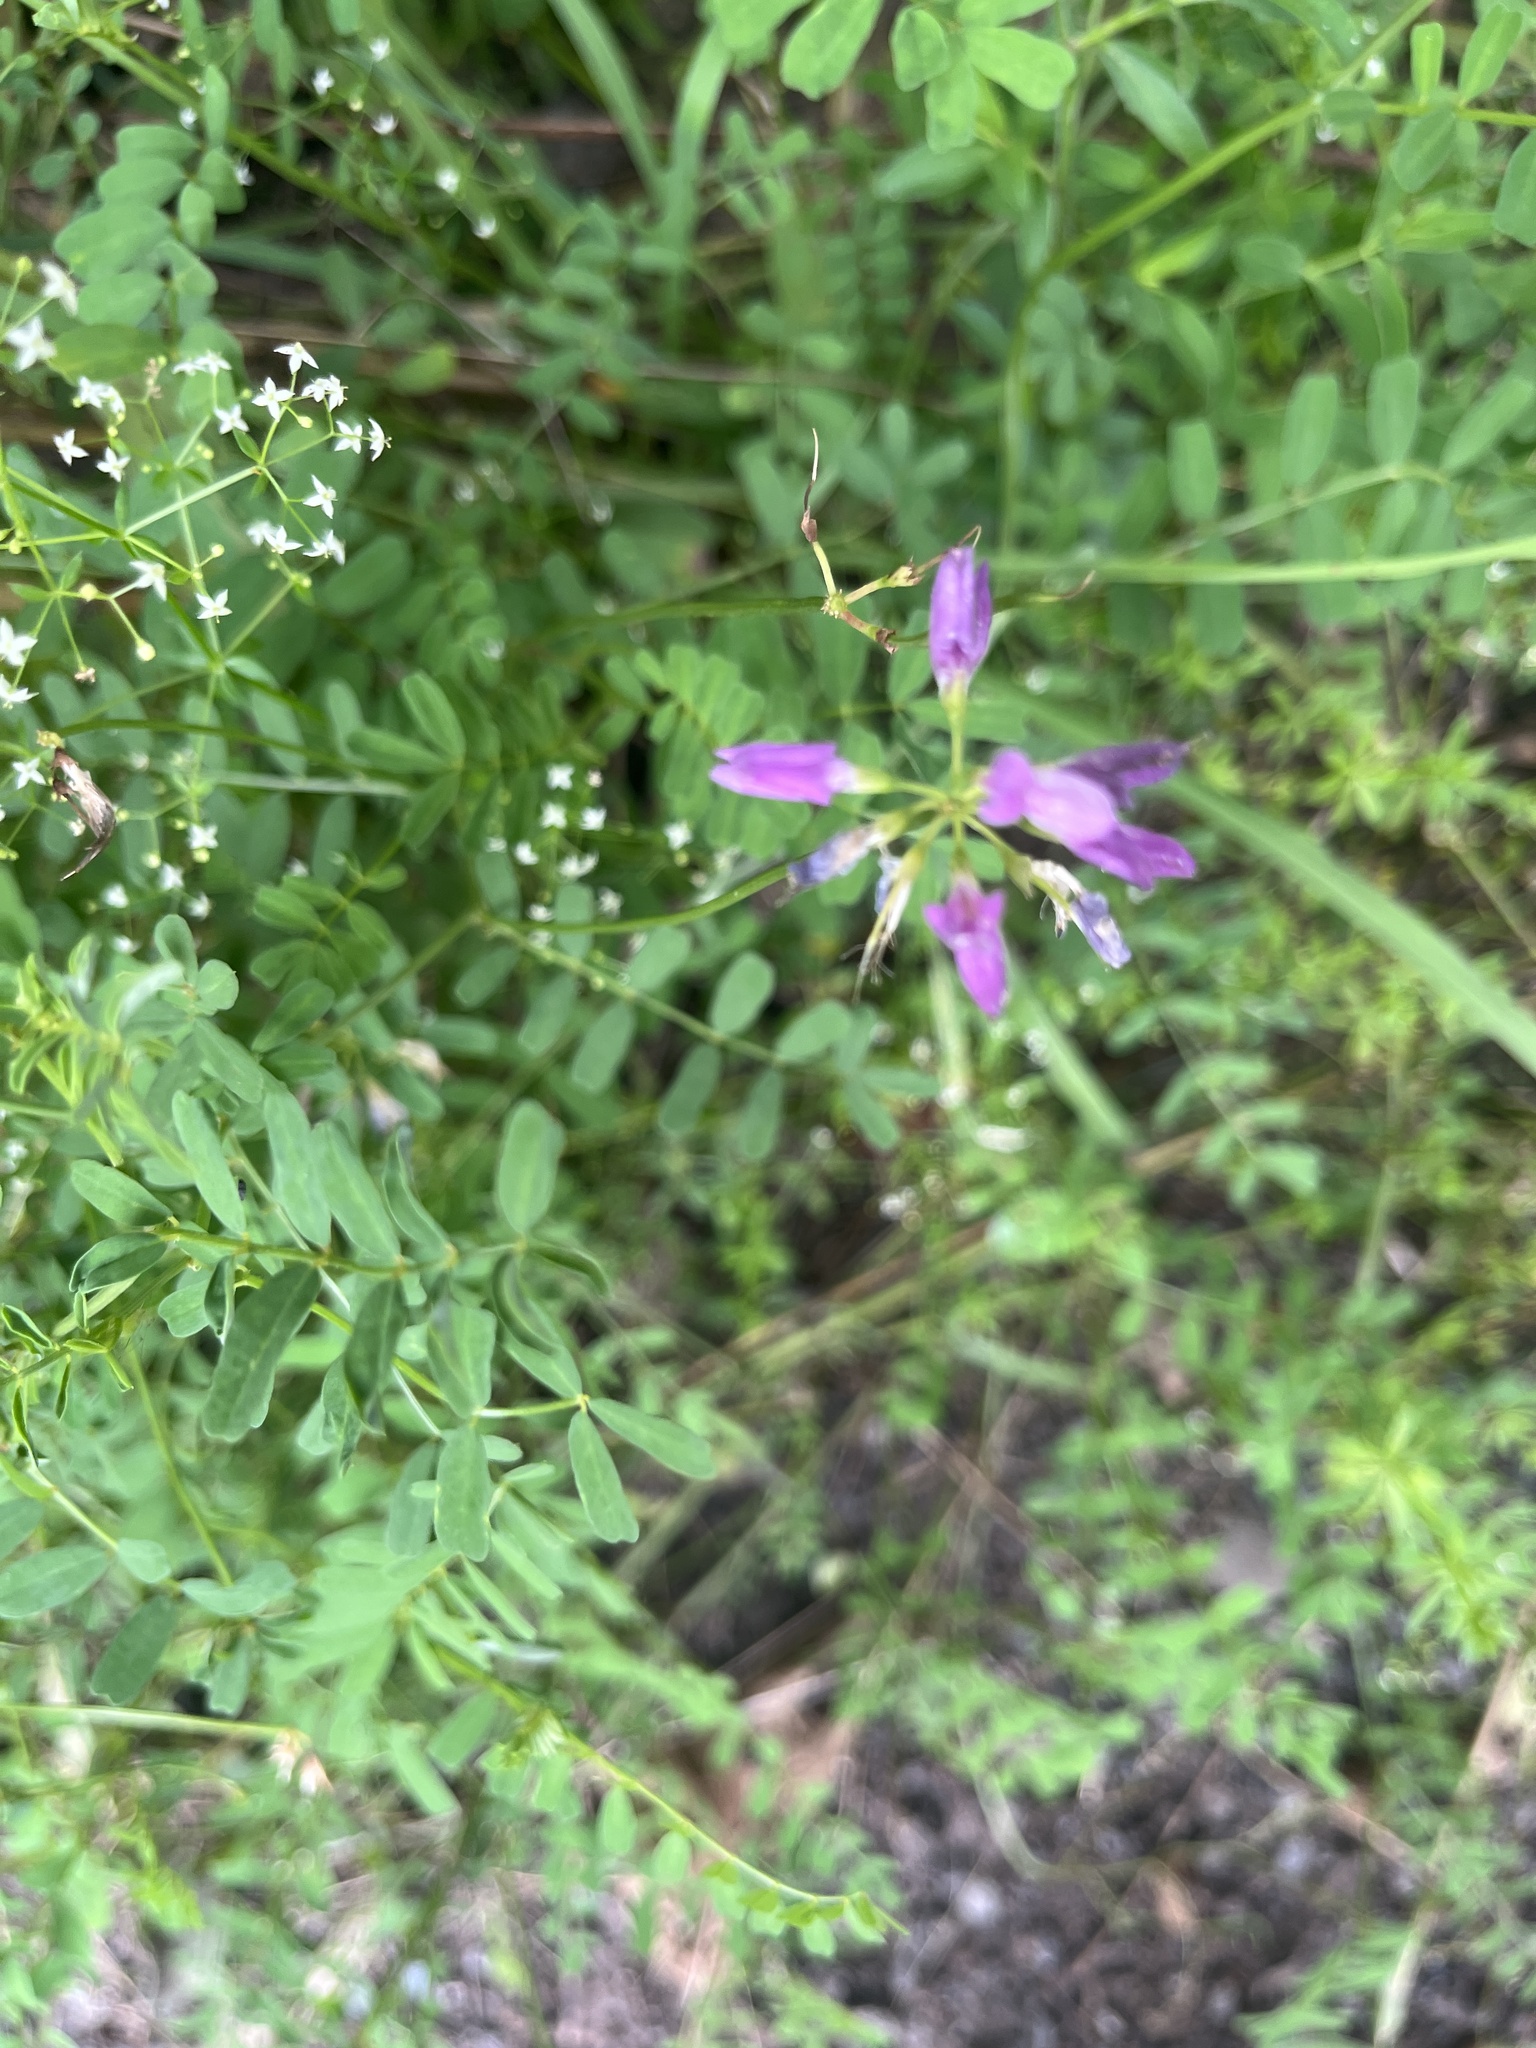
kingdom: Plantae
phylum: Tracheophyta
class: Magnoliopsida
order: Fabales
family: Fabaceae
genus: Coronilla
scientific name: Coronilla varia
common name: Crownvetch
